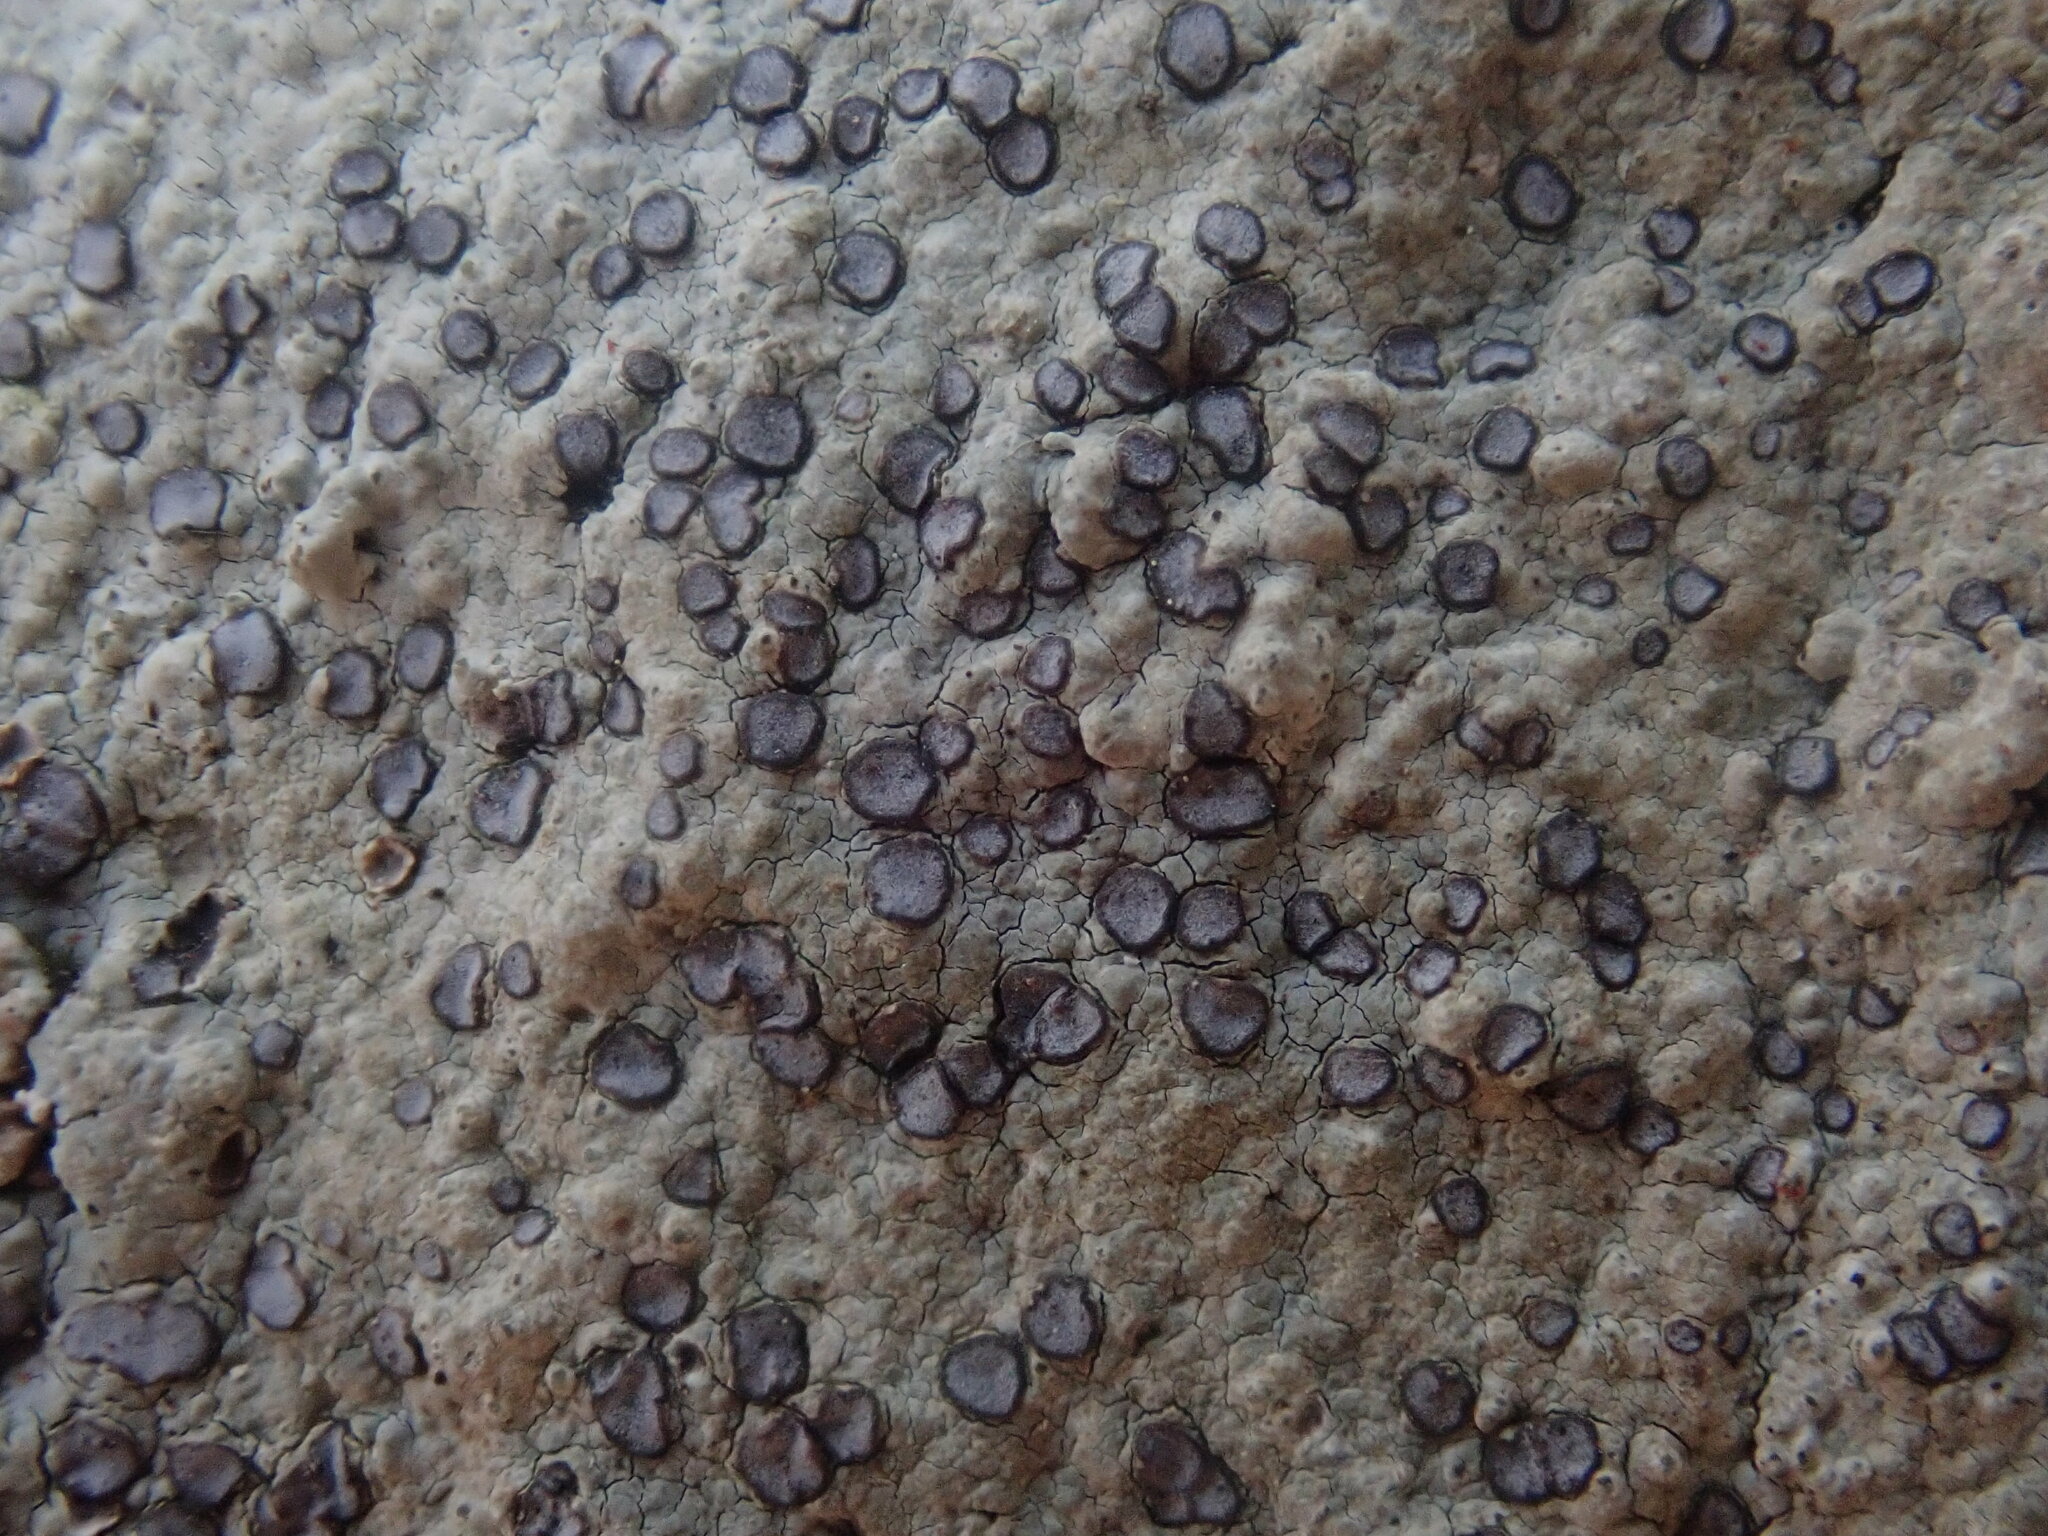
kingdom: Fungi
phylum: Ascomycota
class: Lecanoromycetes
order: Lecideales
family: Lecideaceae
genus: Porpidia
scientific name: Porpidia albocaerulescens
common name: Smokey-eyed boulder lichen
